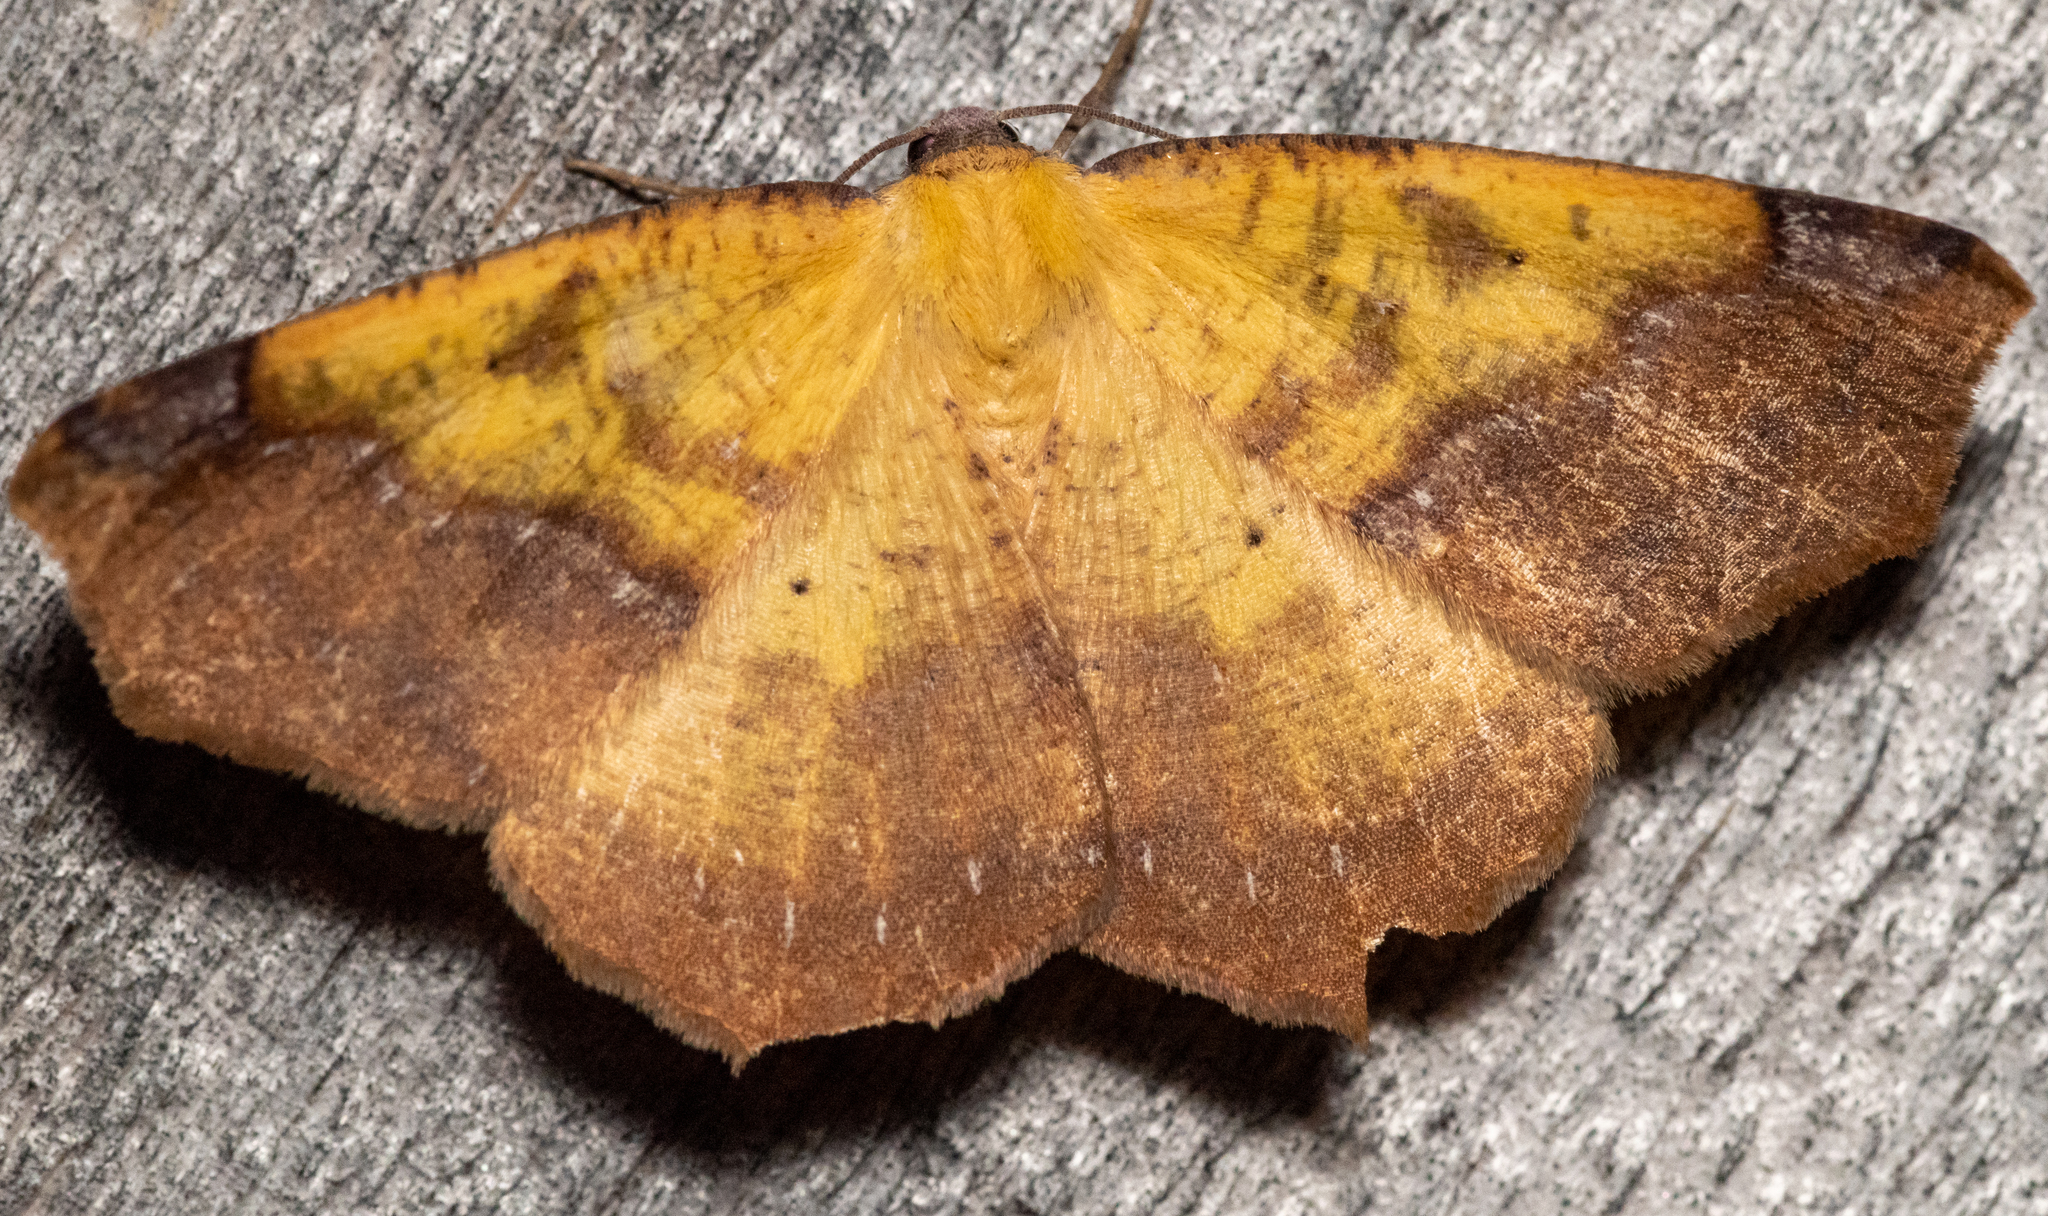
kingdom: Animalia
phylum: Arthropoda
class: Insecta
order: Lepidoptera
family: Geometridae
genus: Antepione
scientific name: Antepione thisoaria
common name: Variable antipione
